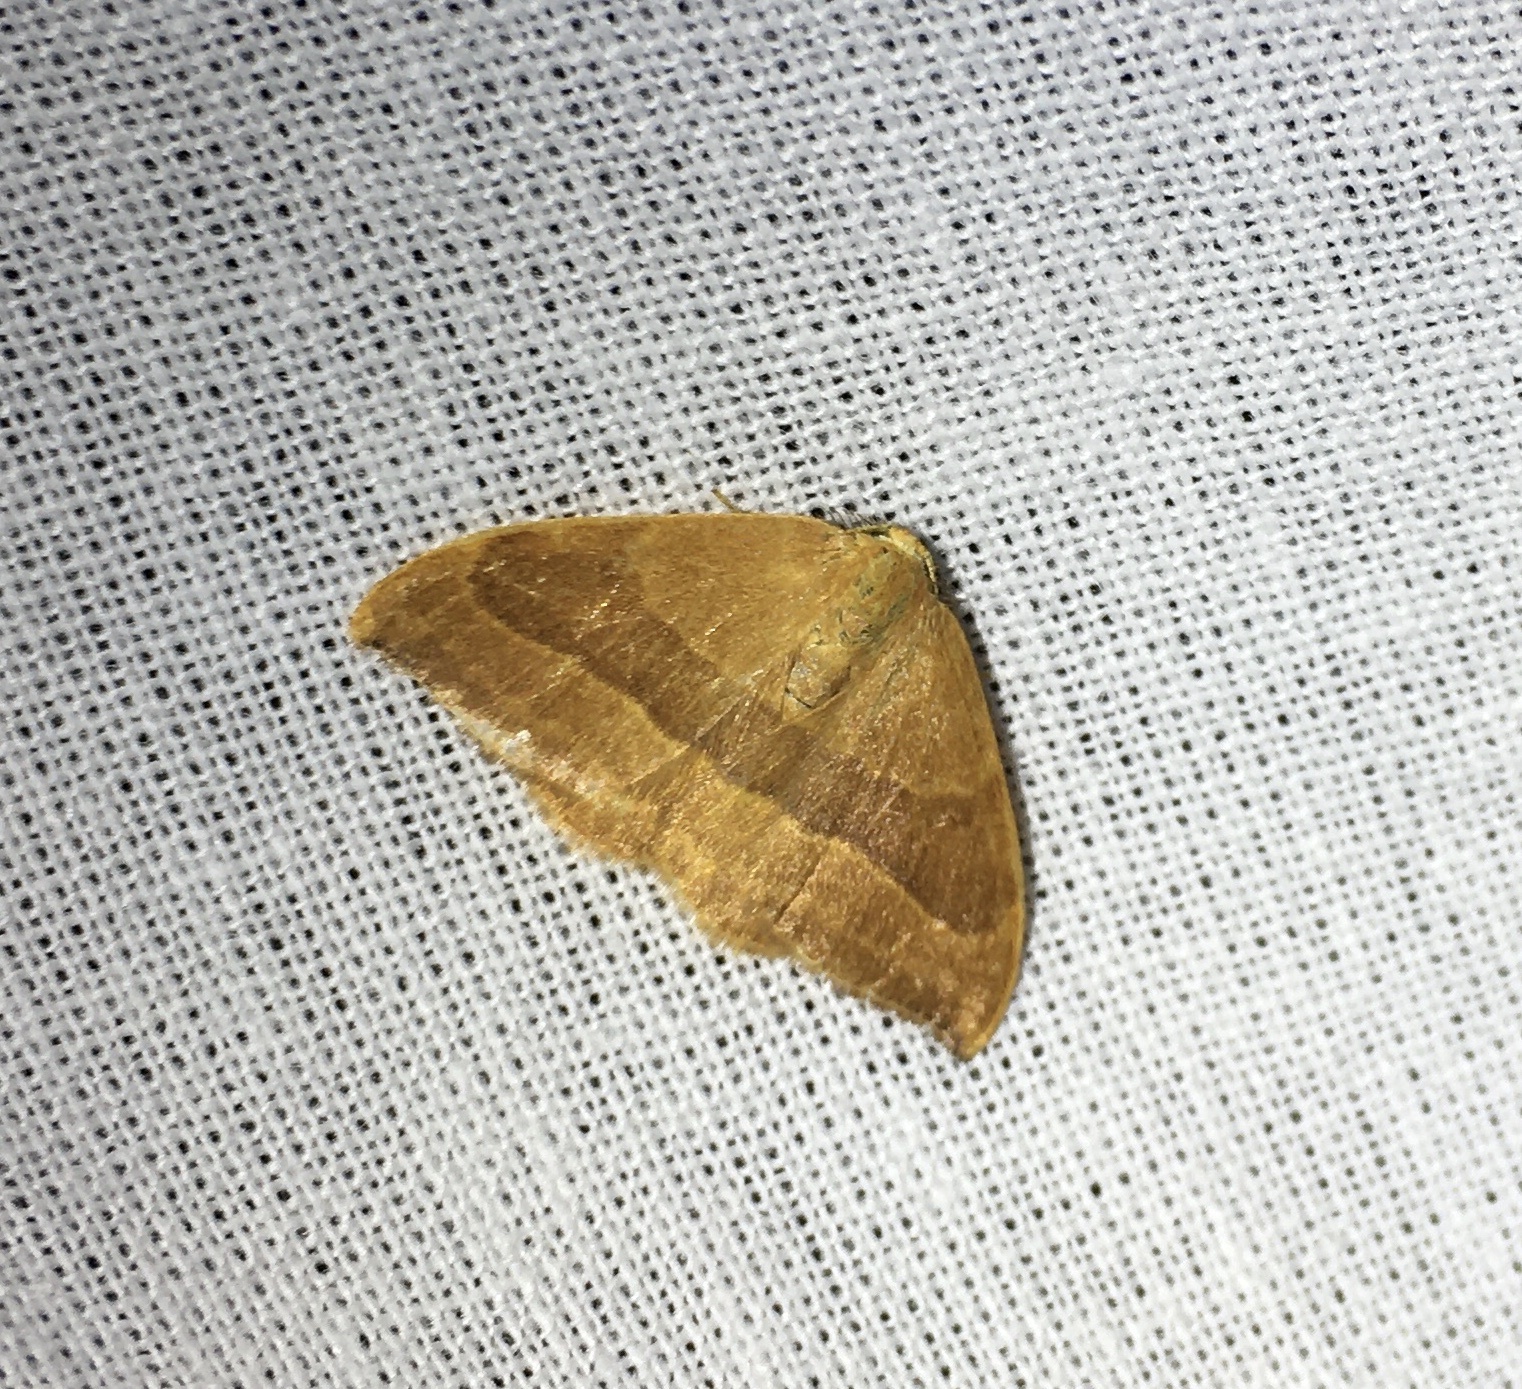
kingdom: Animalia
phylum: Arthropoda
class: Insecta
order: Lepidoptera
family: Drepanidae
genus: Watsonalla
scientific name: Watsonalla cultraria
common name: Barred hook-tip
